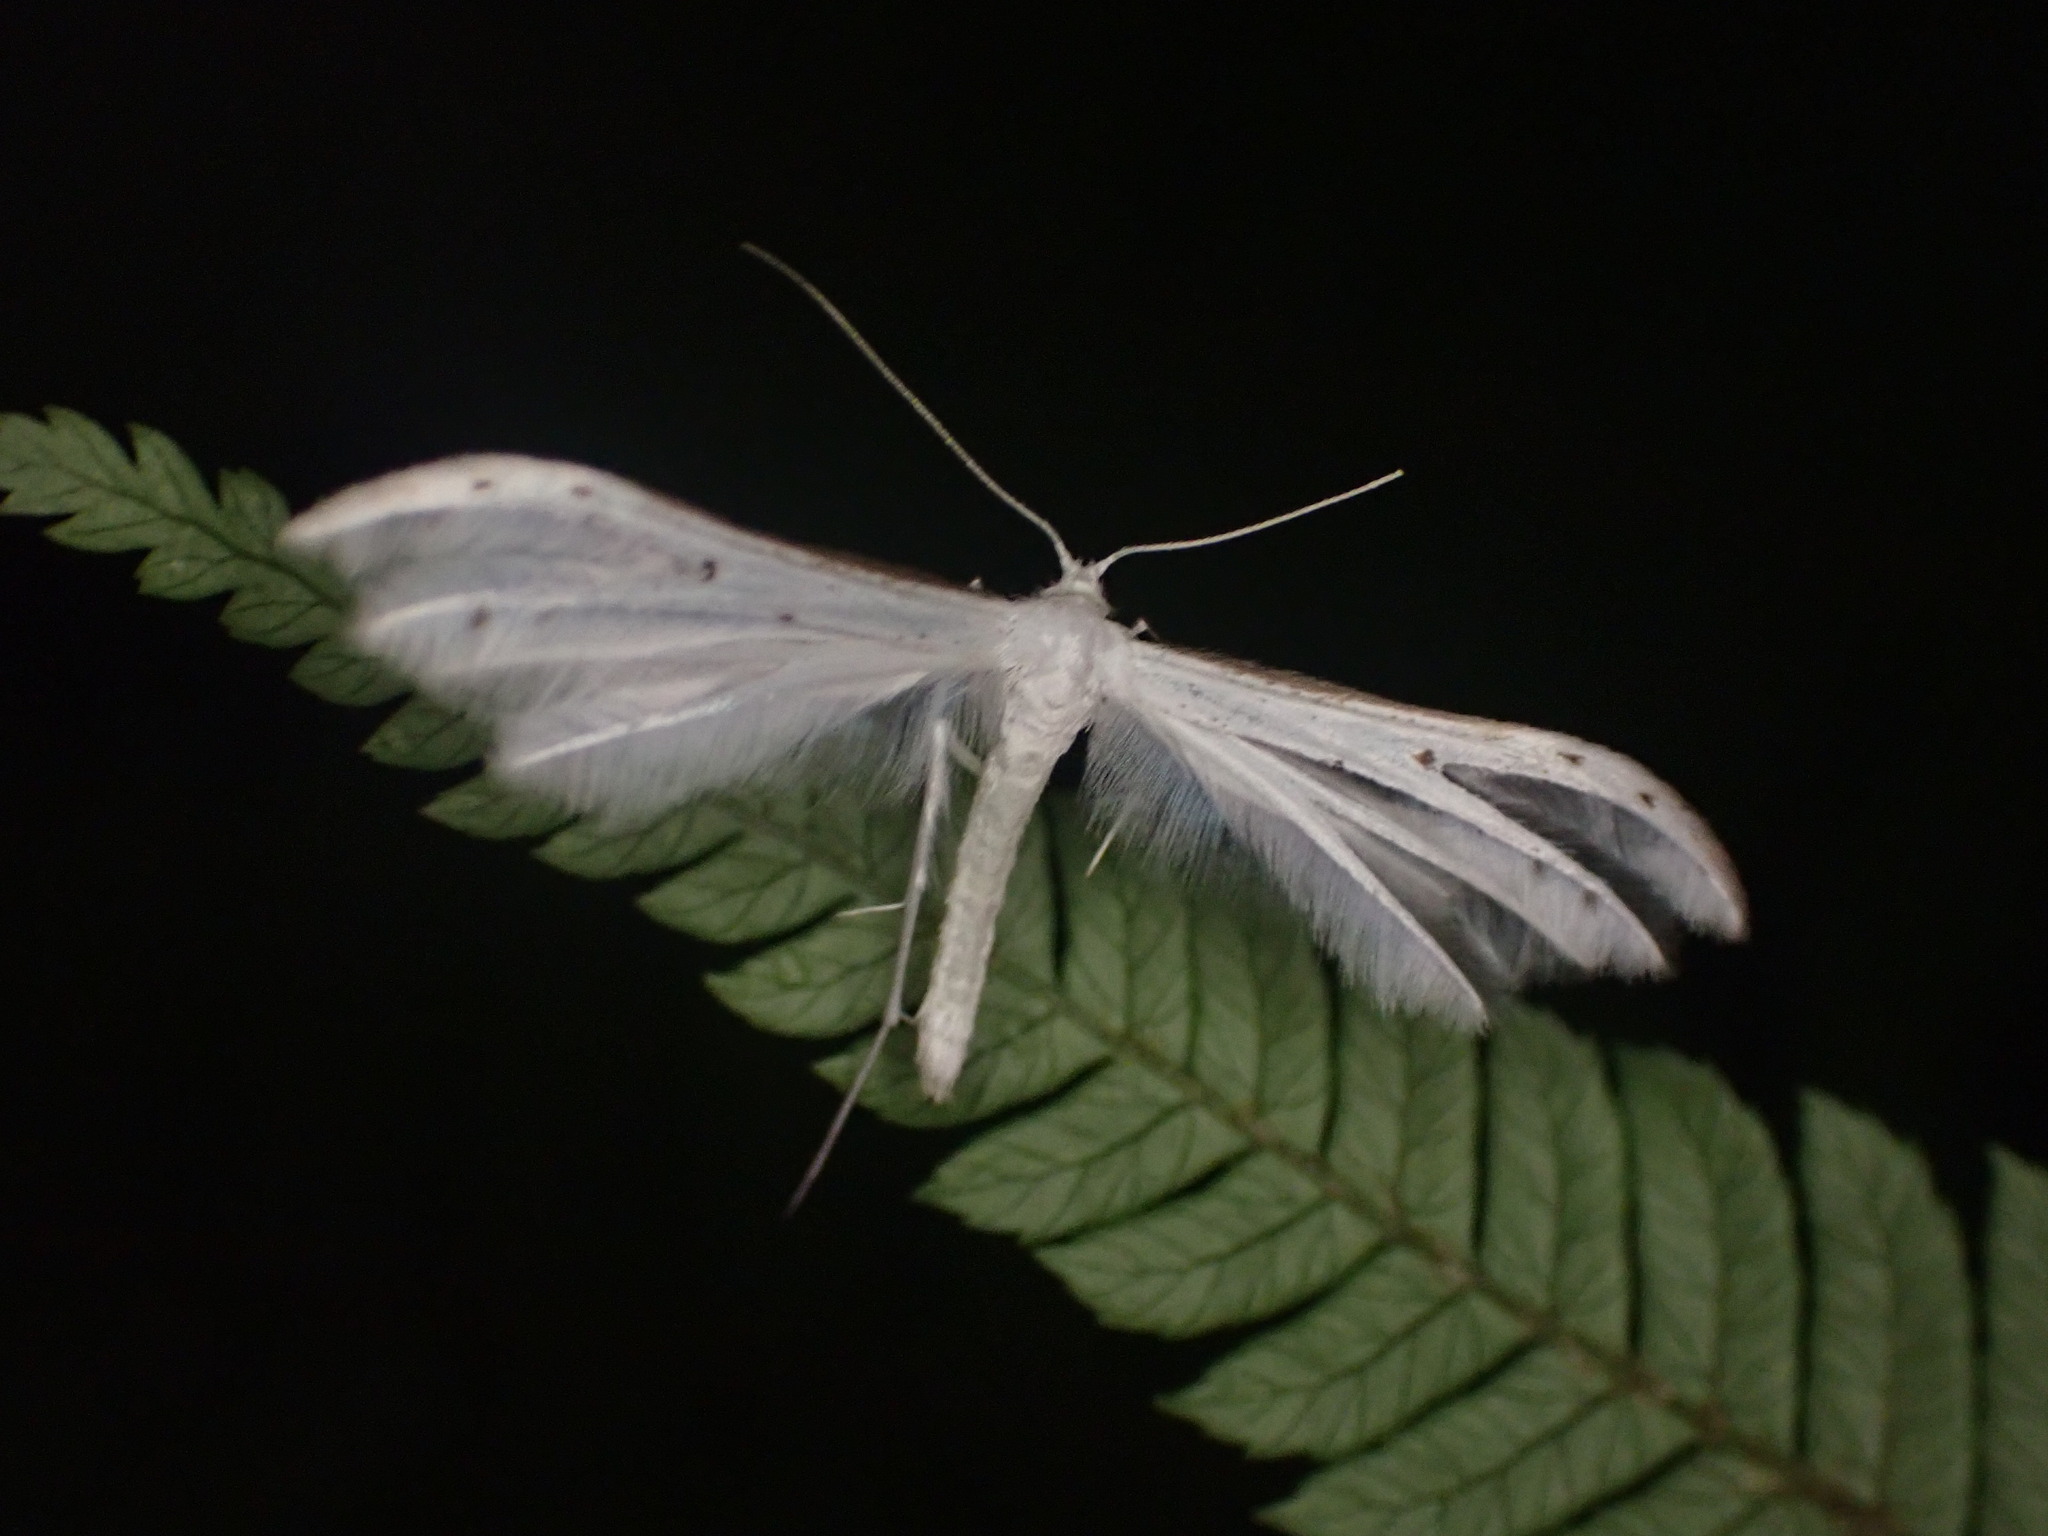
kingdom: Animalia
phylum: Arthropoda
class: Insecta
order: Lepidoptera
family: Pterophoridae
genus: Pterophorus
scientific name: Pterophorus monospilalis
